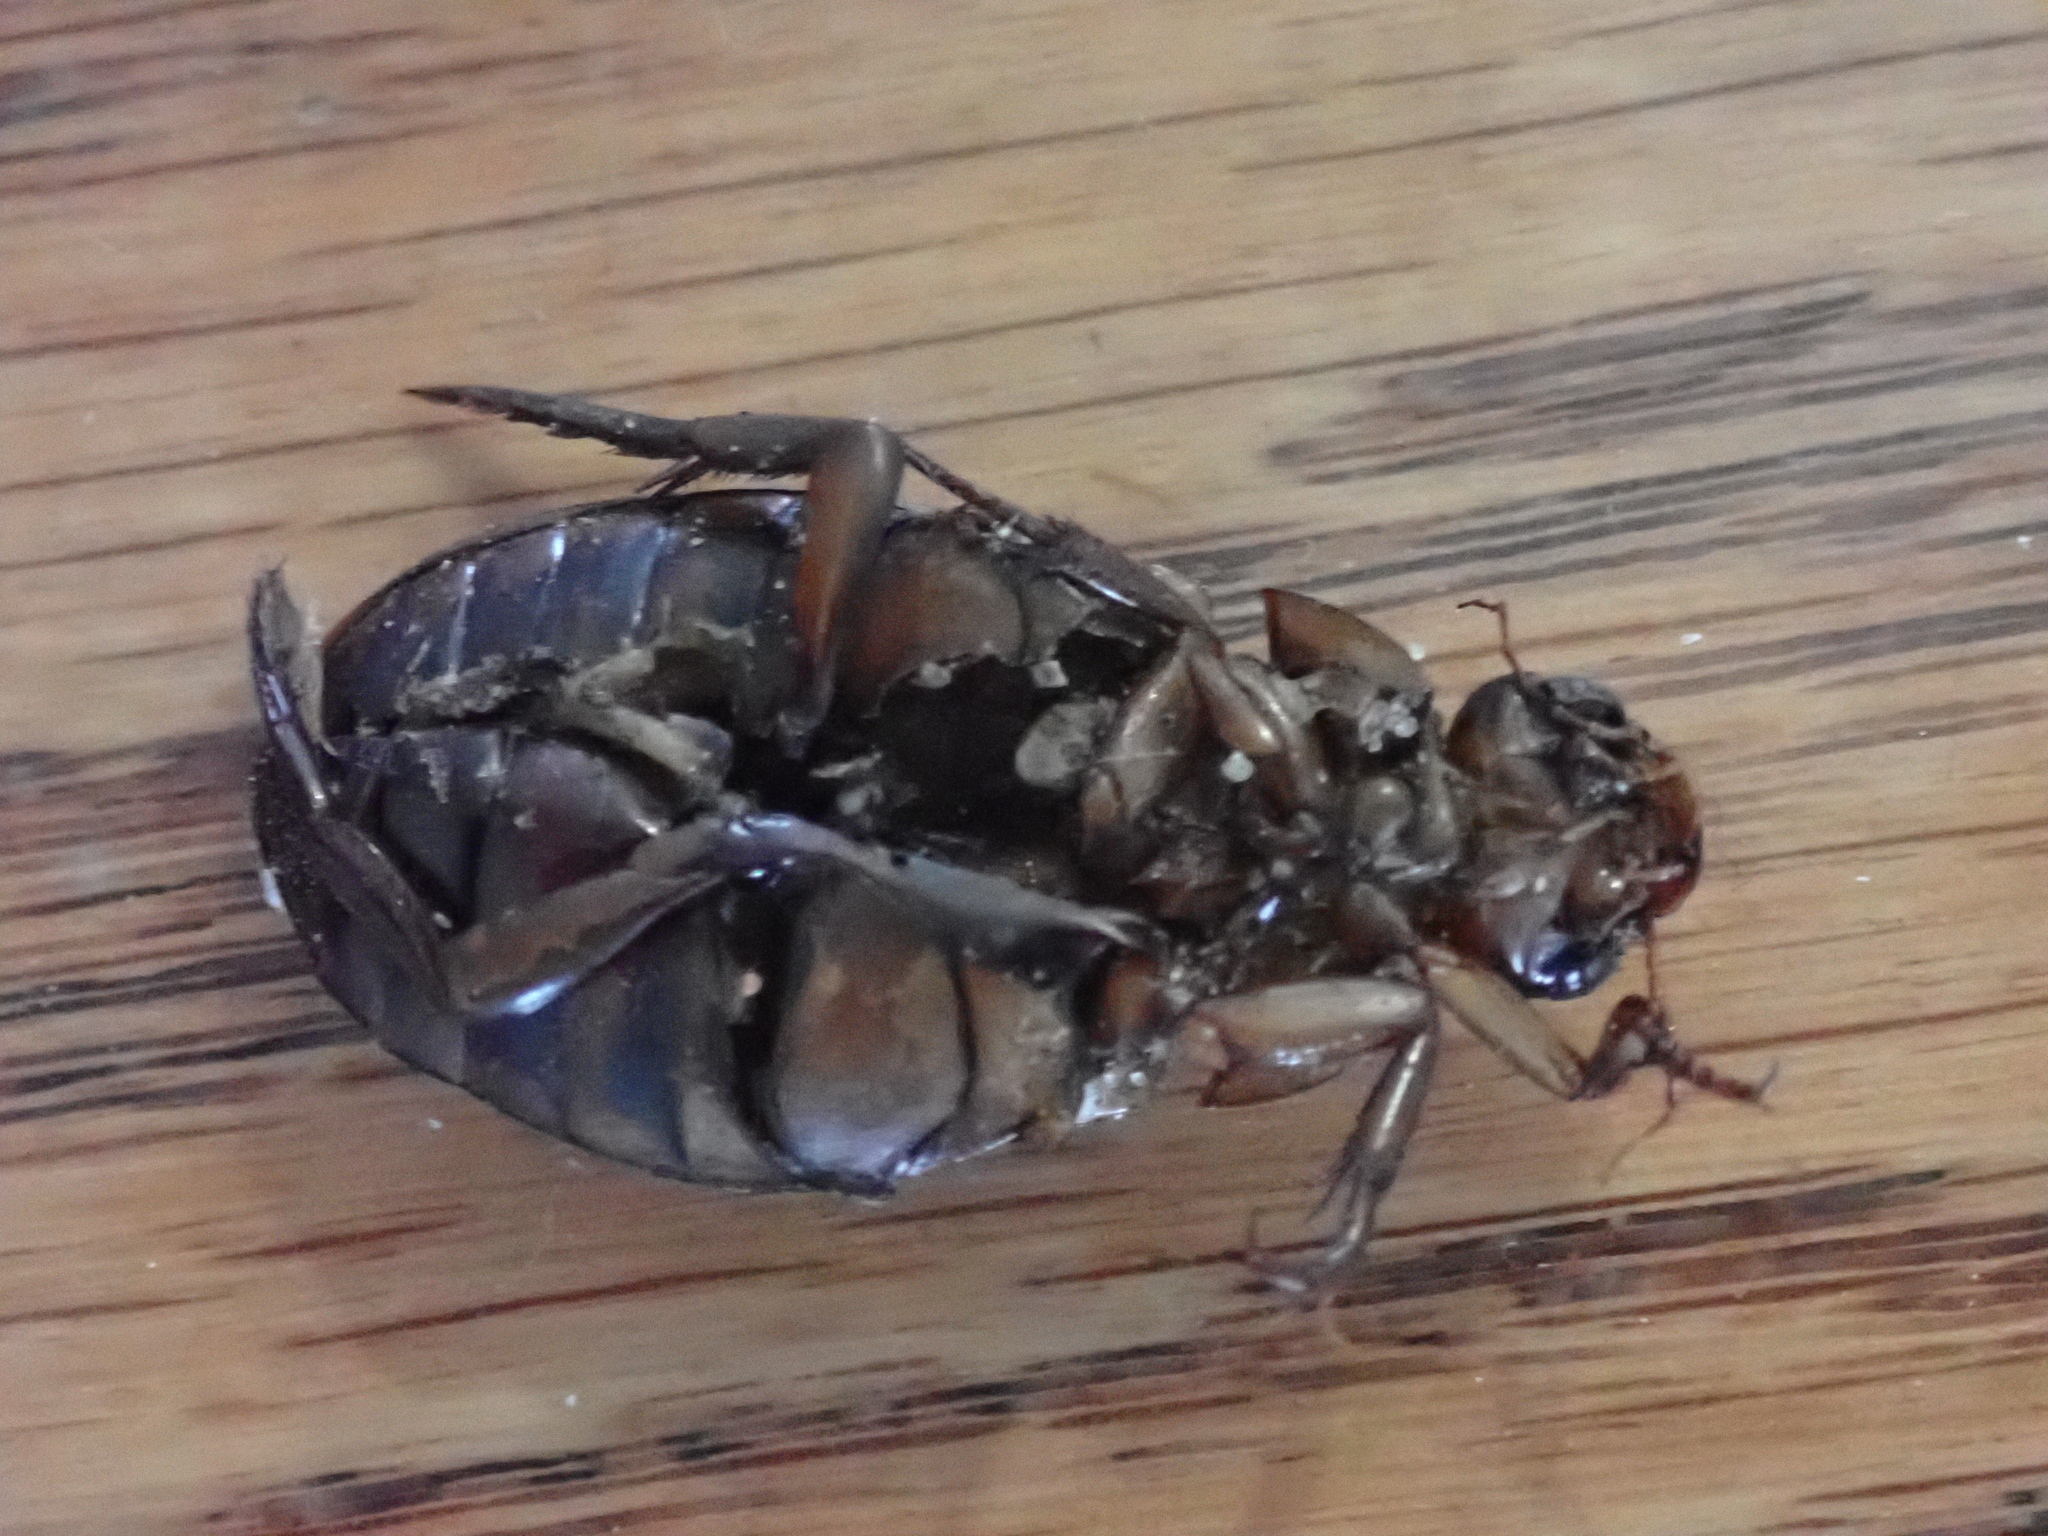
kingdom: Animalia
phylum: Arthropoda
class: Insecta
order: Coleoptera
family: Dytiscidae
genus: Dytiscus
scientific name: Dytiscus fasciventris
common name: Understriped diving beetle
